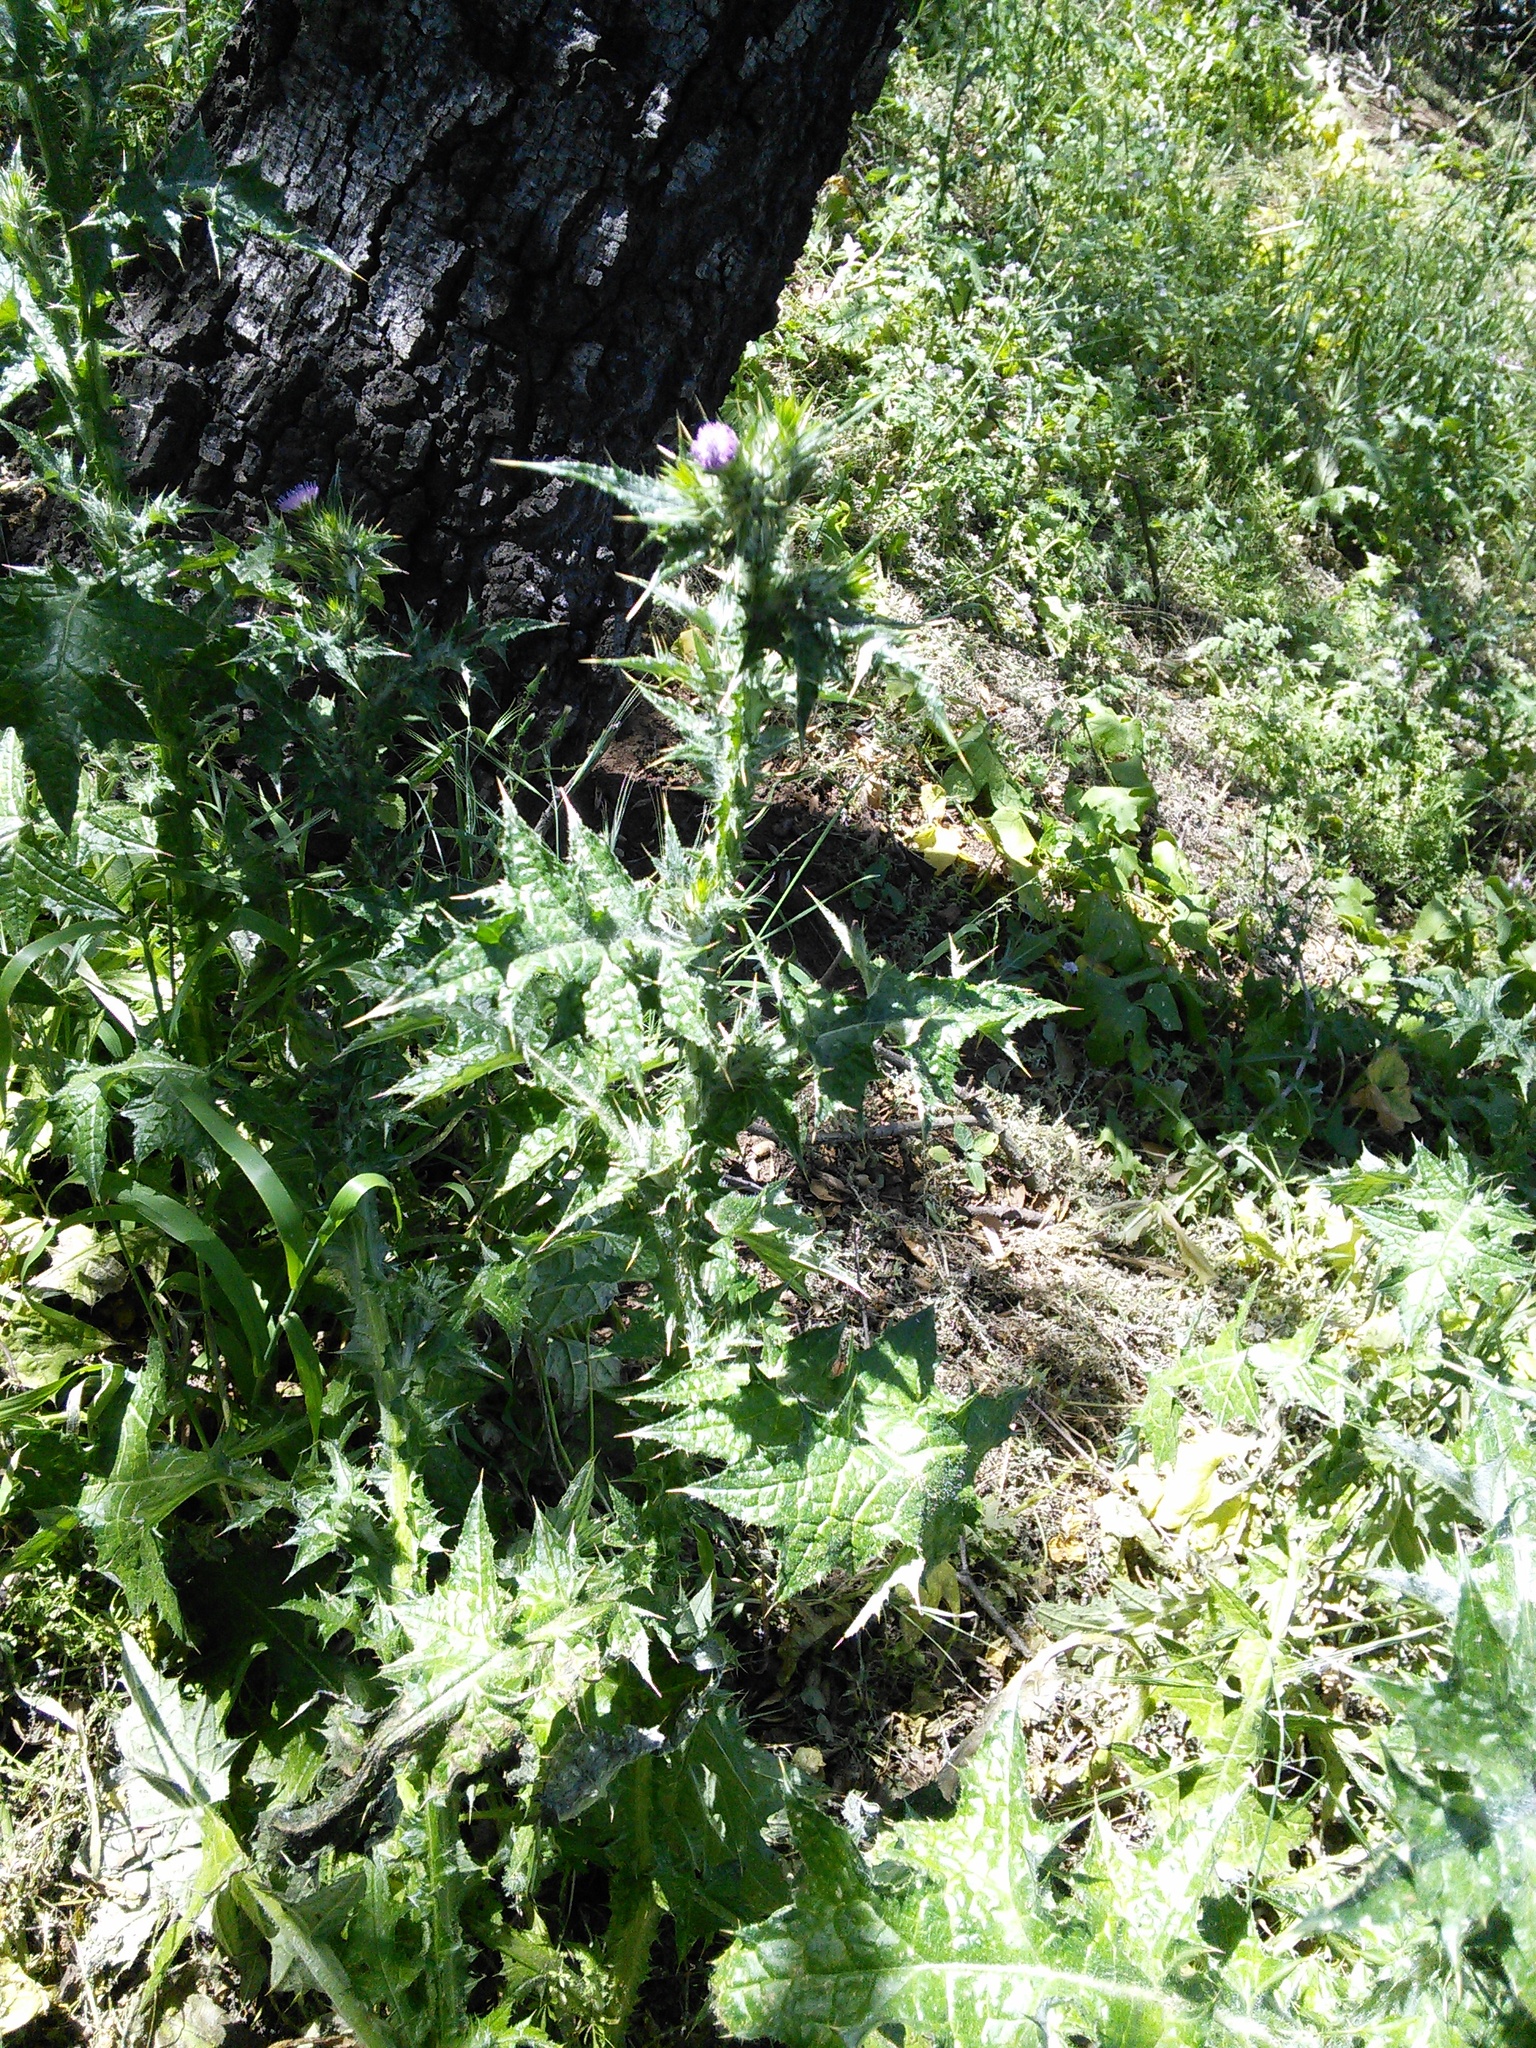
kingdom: Plantae
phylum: Tracheophyta
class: Magnoliopsida
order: Asterales
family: Asteraceae
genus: Carduus
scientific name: Carduus pycnocephalus
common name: Plymouth thistle
